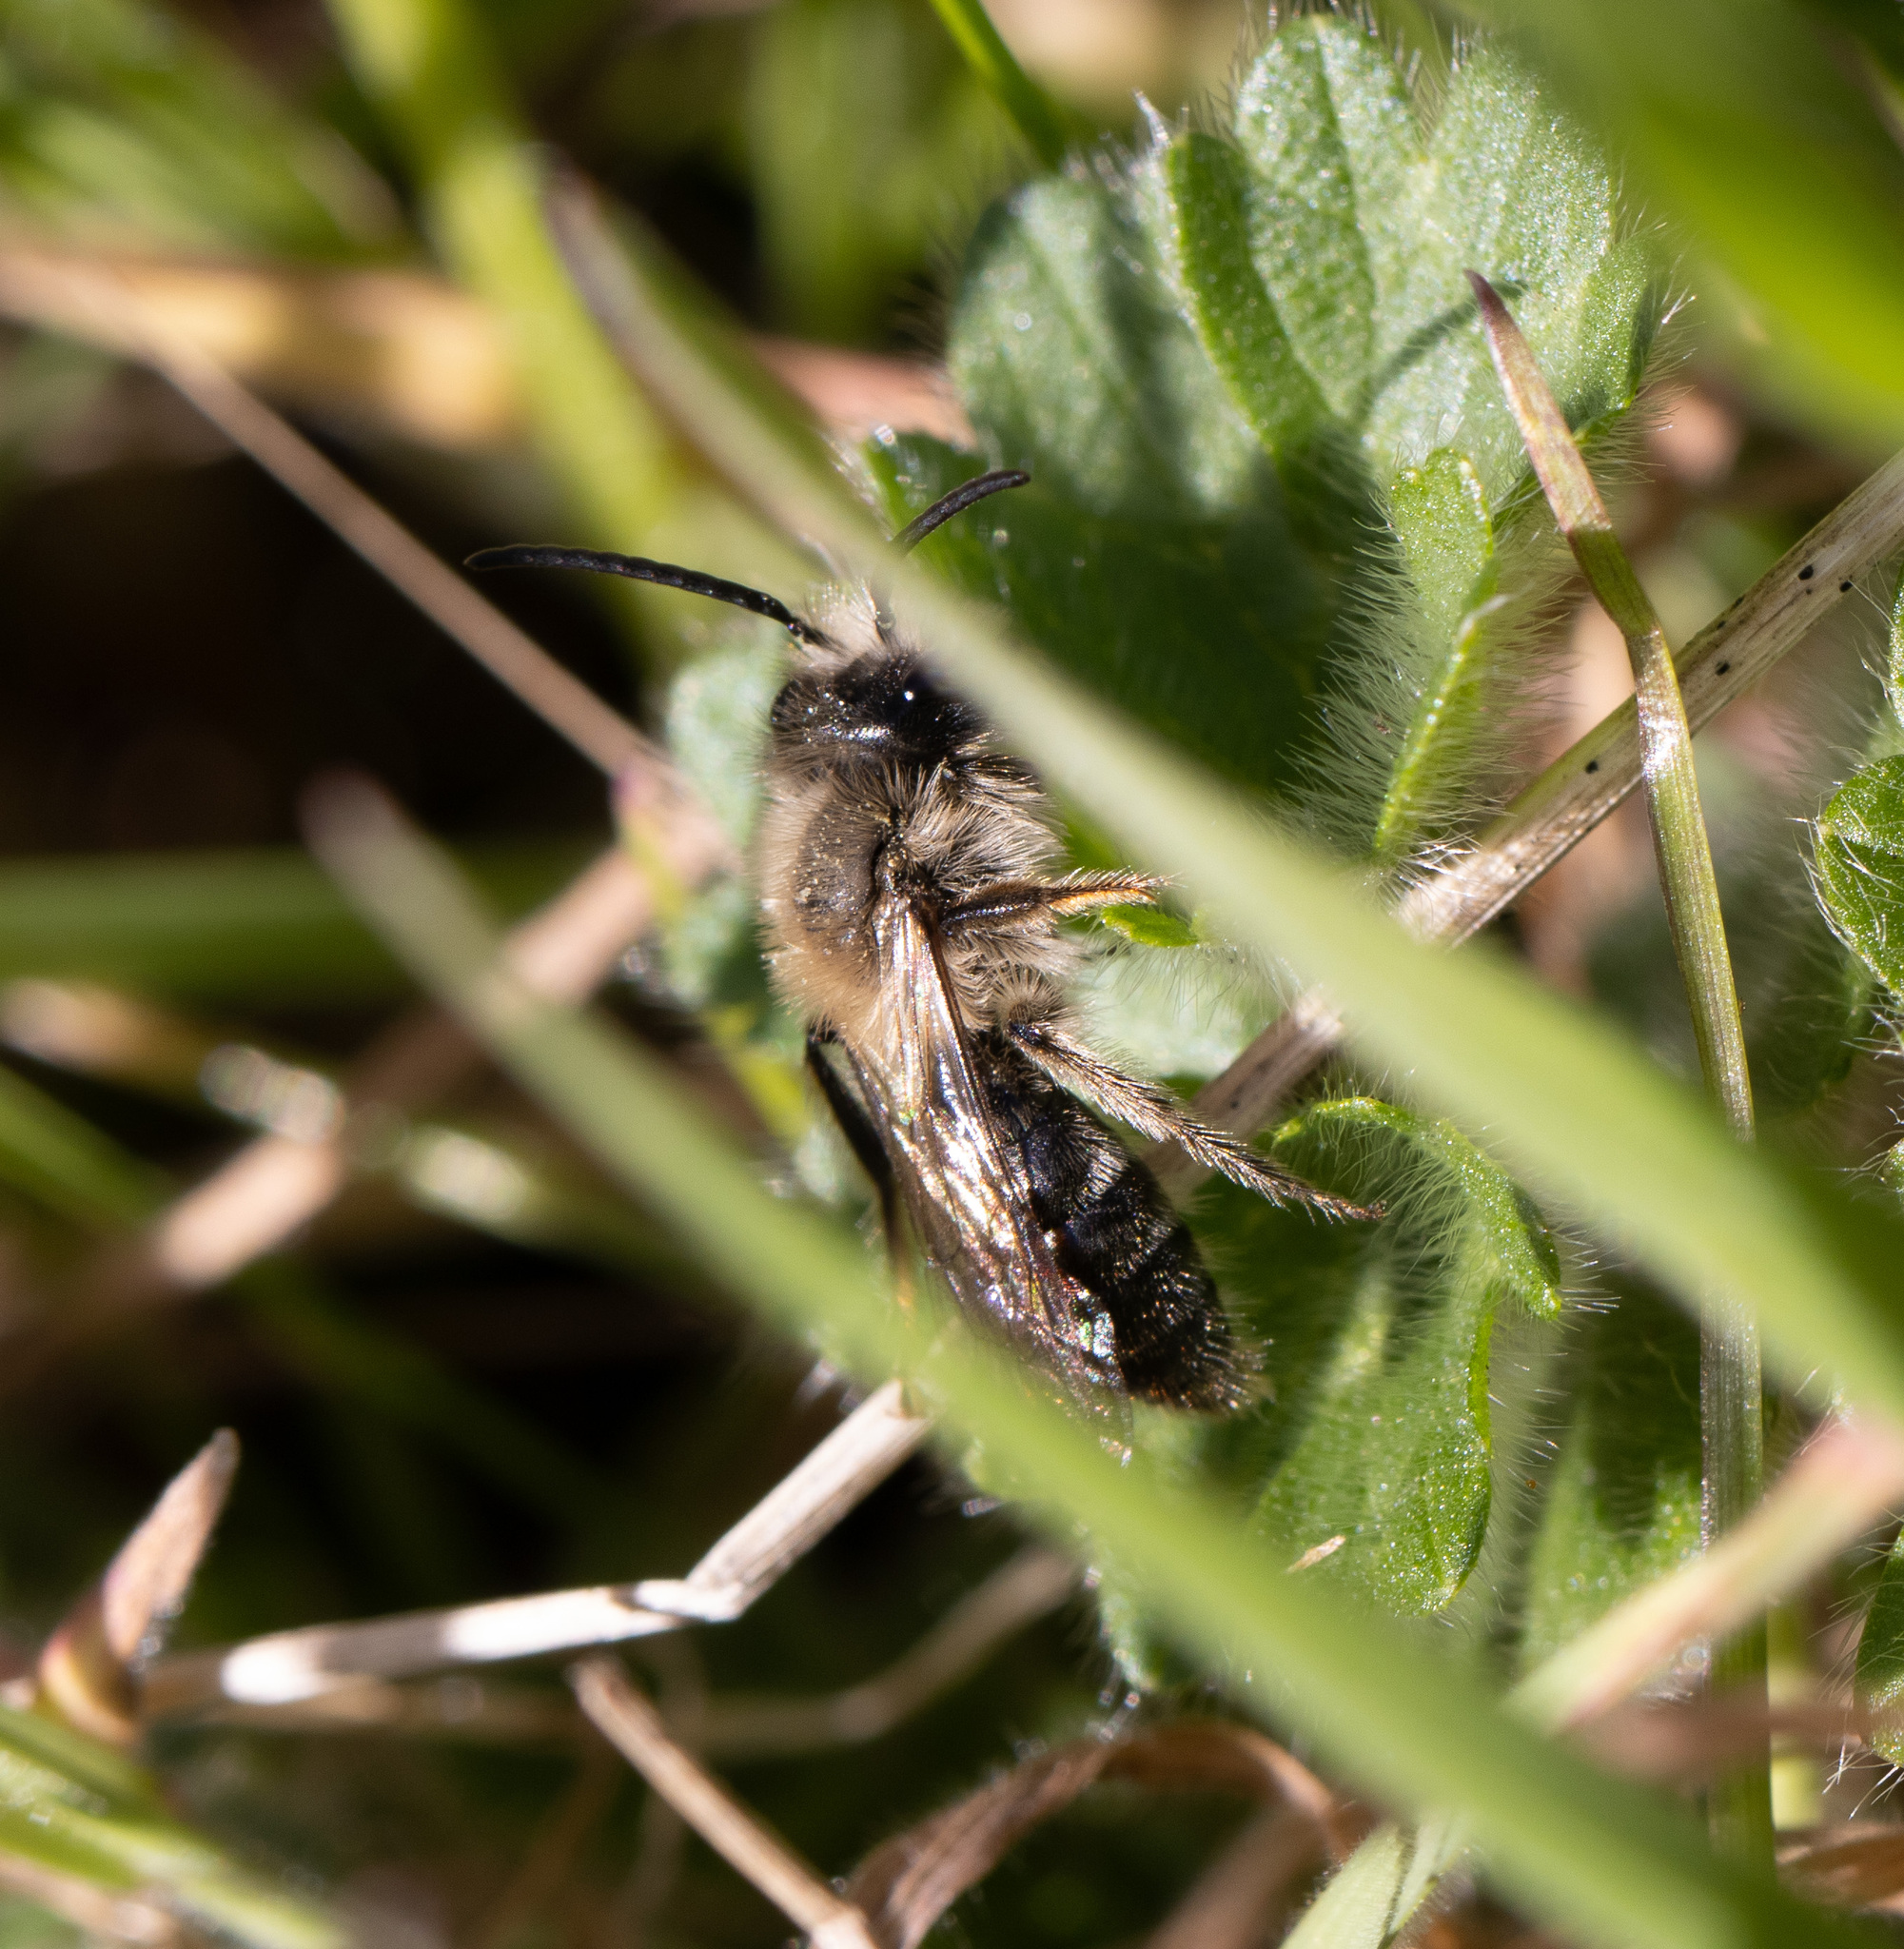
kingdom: Animalia
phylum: Arthropoda
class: Insecta
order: Hymenoptera
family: Andrenidae
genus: Andrena
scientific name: Andrena carlini
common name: Carlin's mining bee
